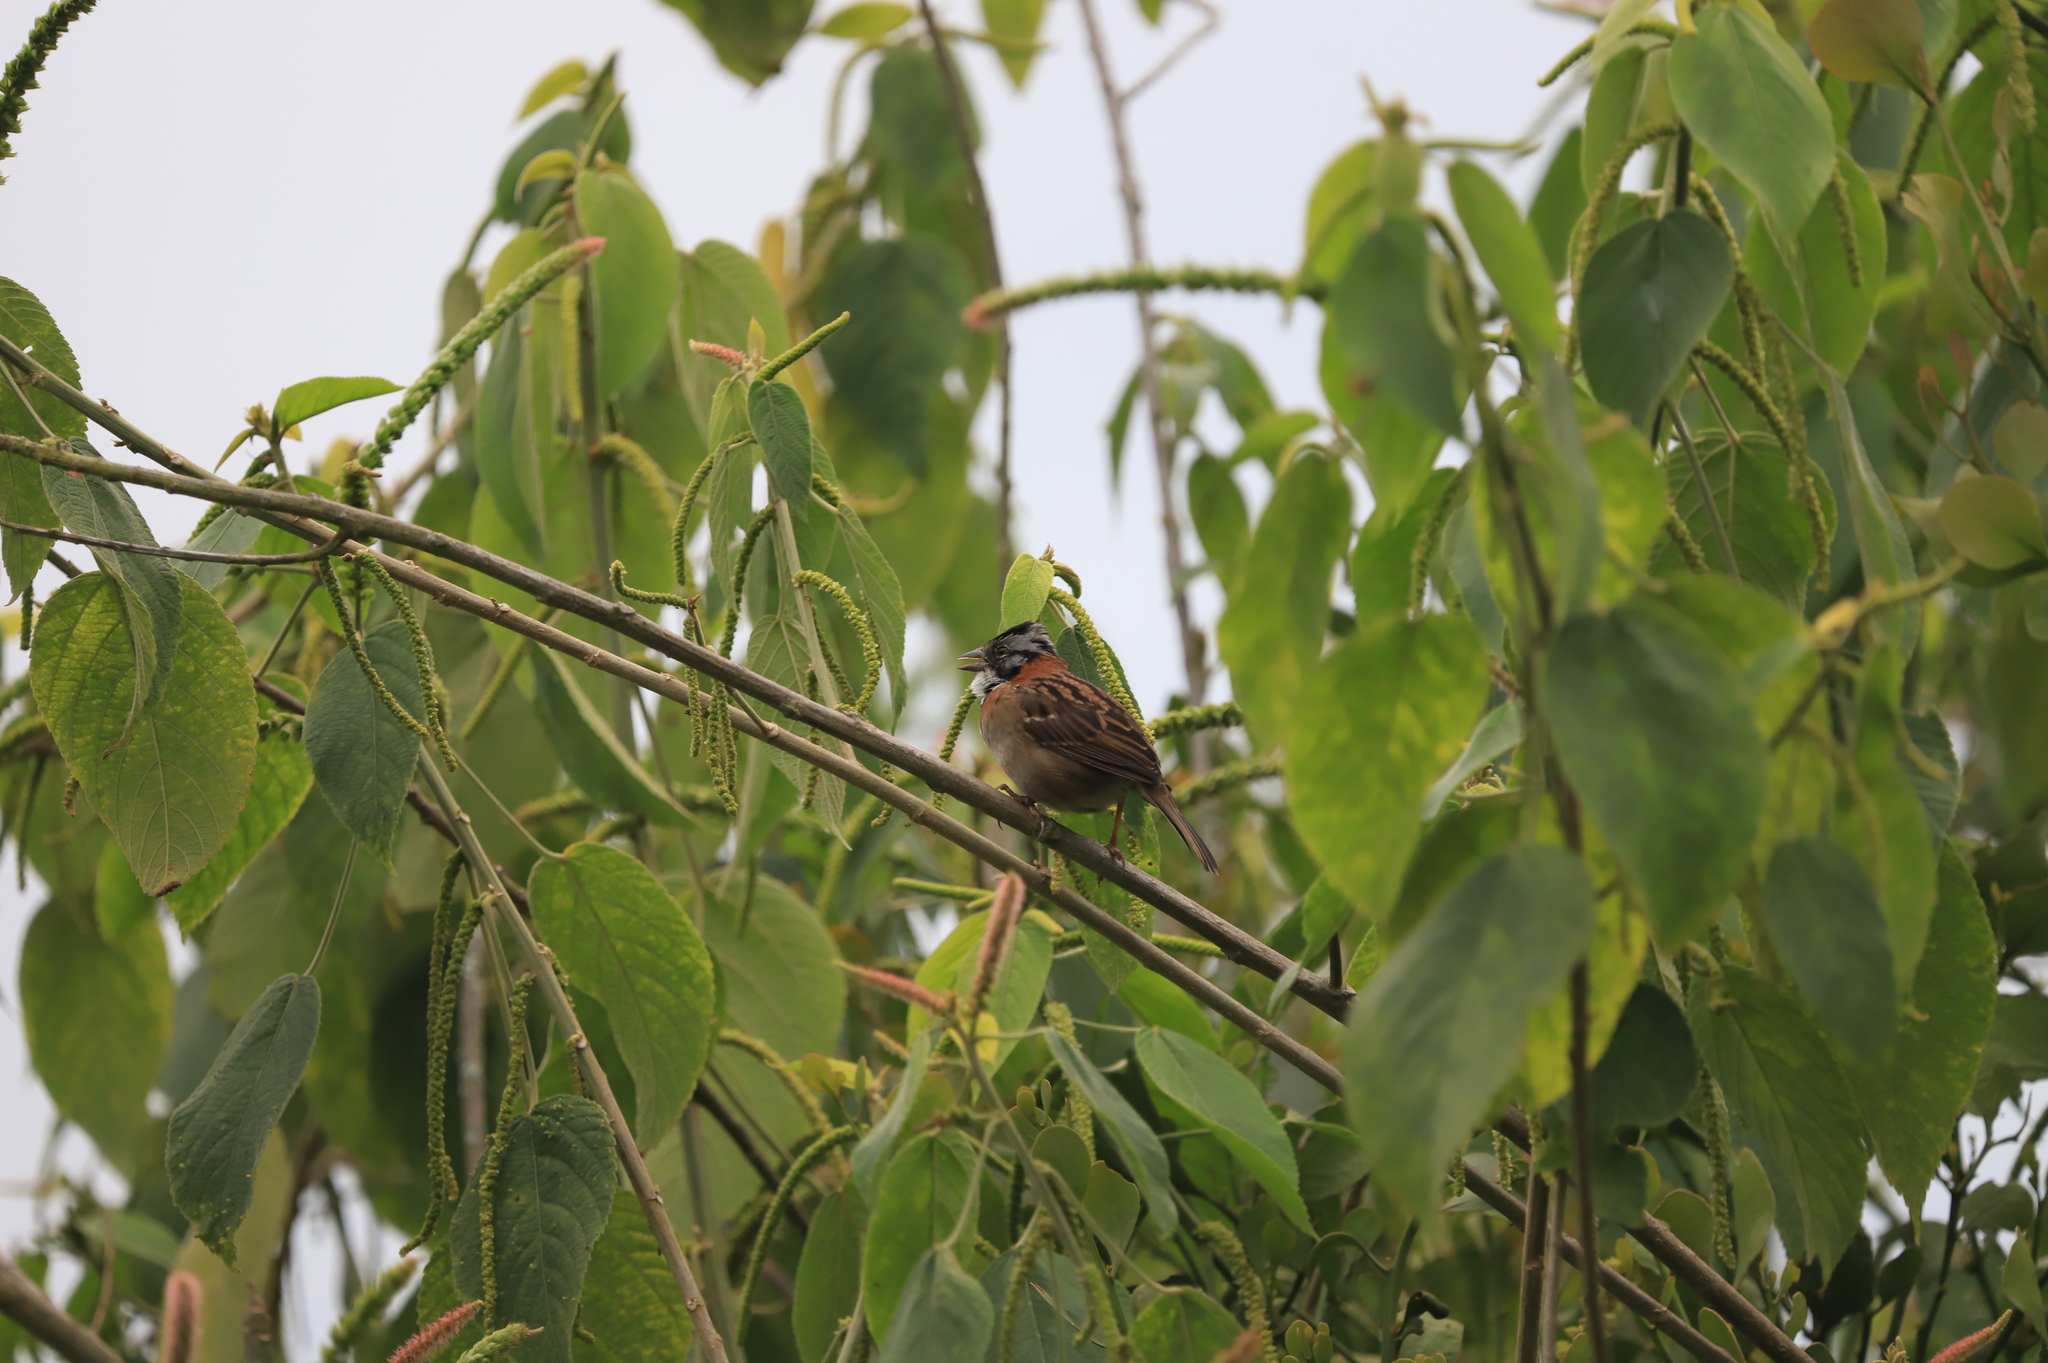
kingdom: Animalia
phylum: Chordata
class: Aves
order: Passeriformes
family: Passerellidae
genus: Zonotrichia
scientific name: Zonotrichia capensis
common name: Rufous-collared sparrow
